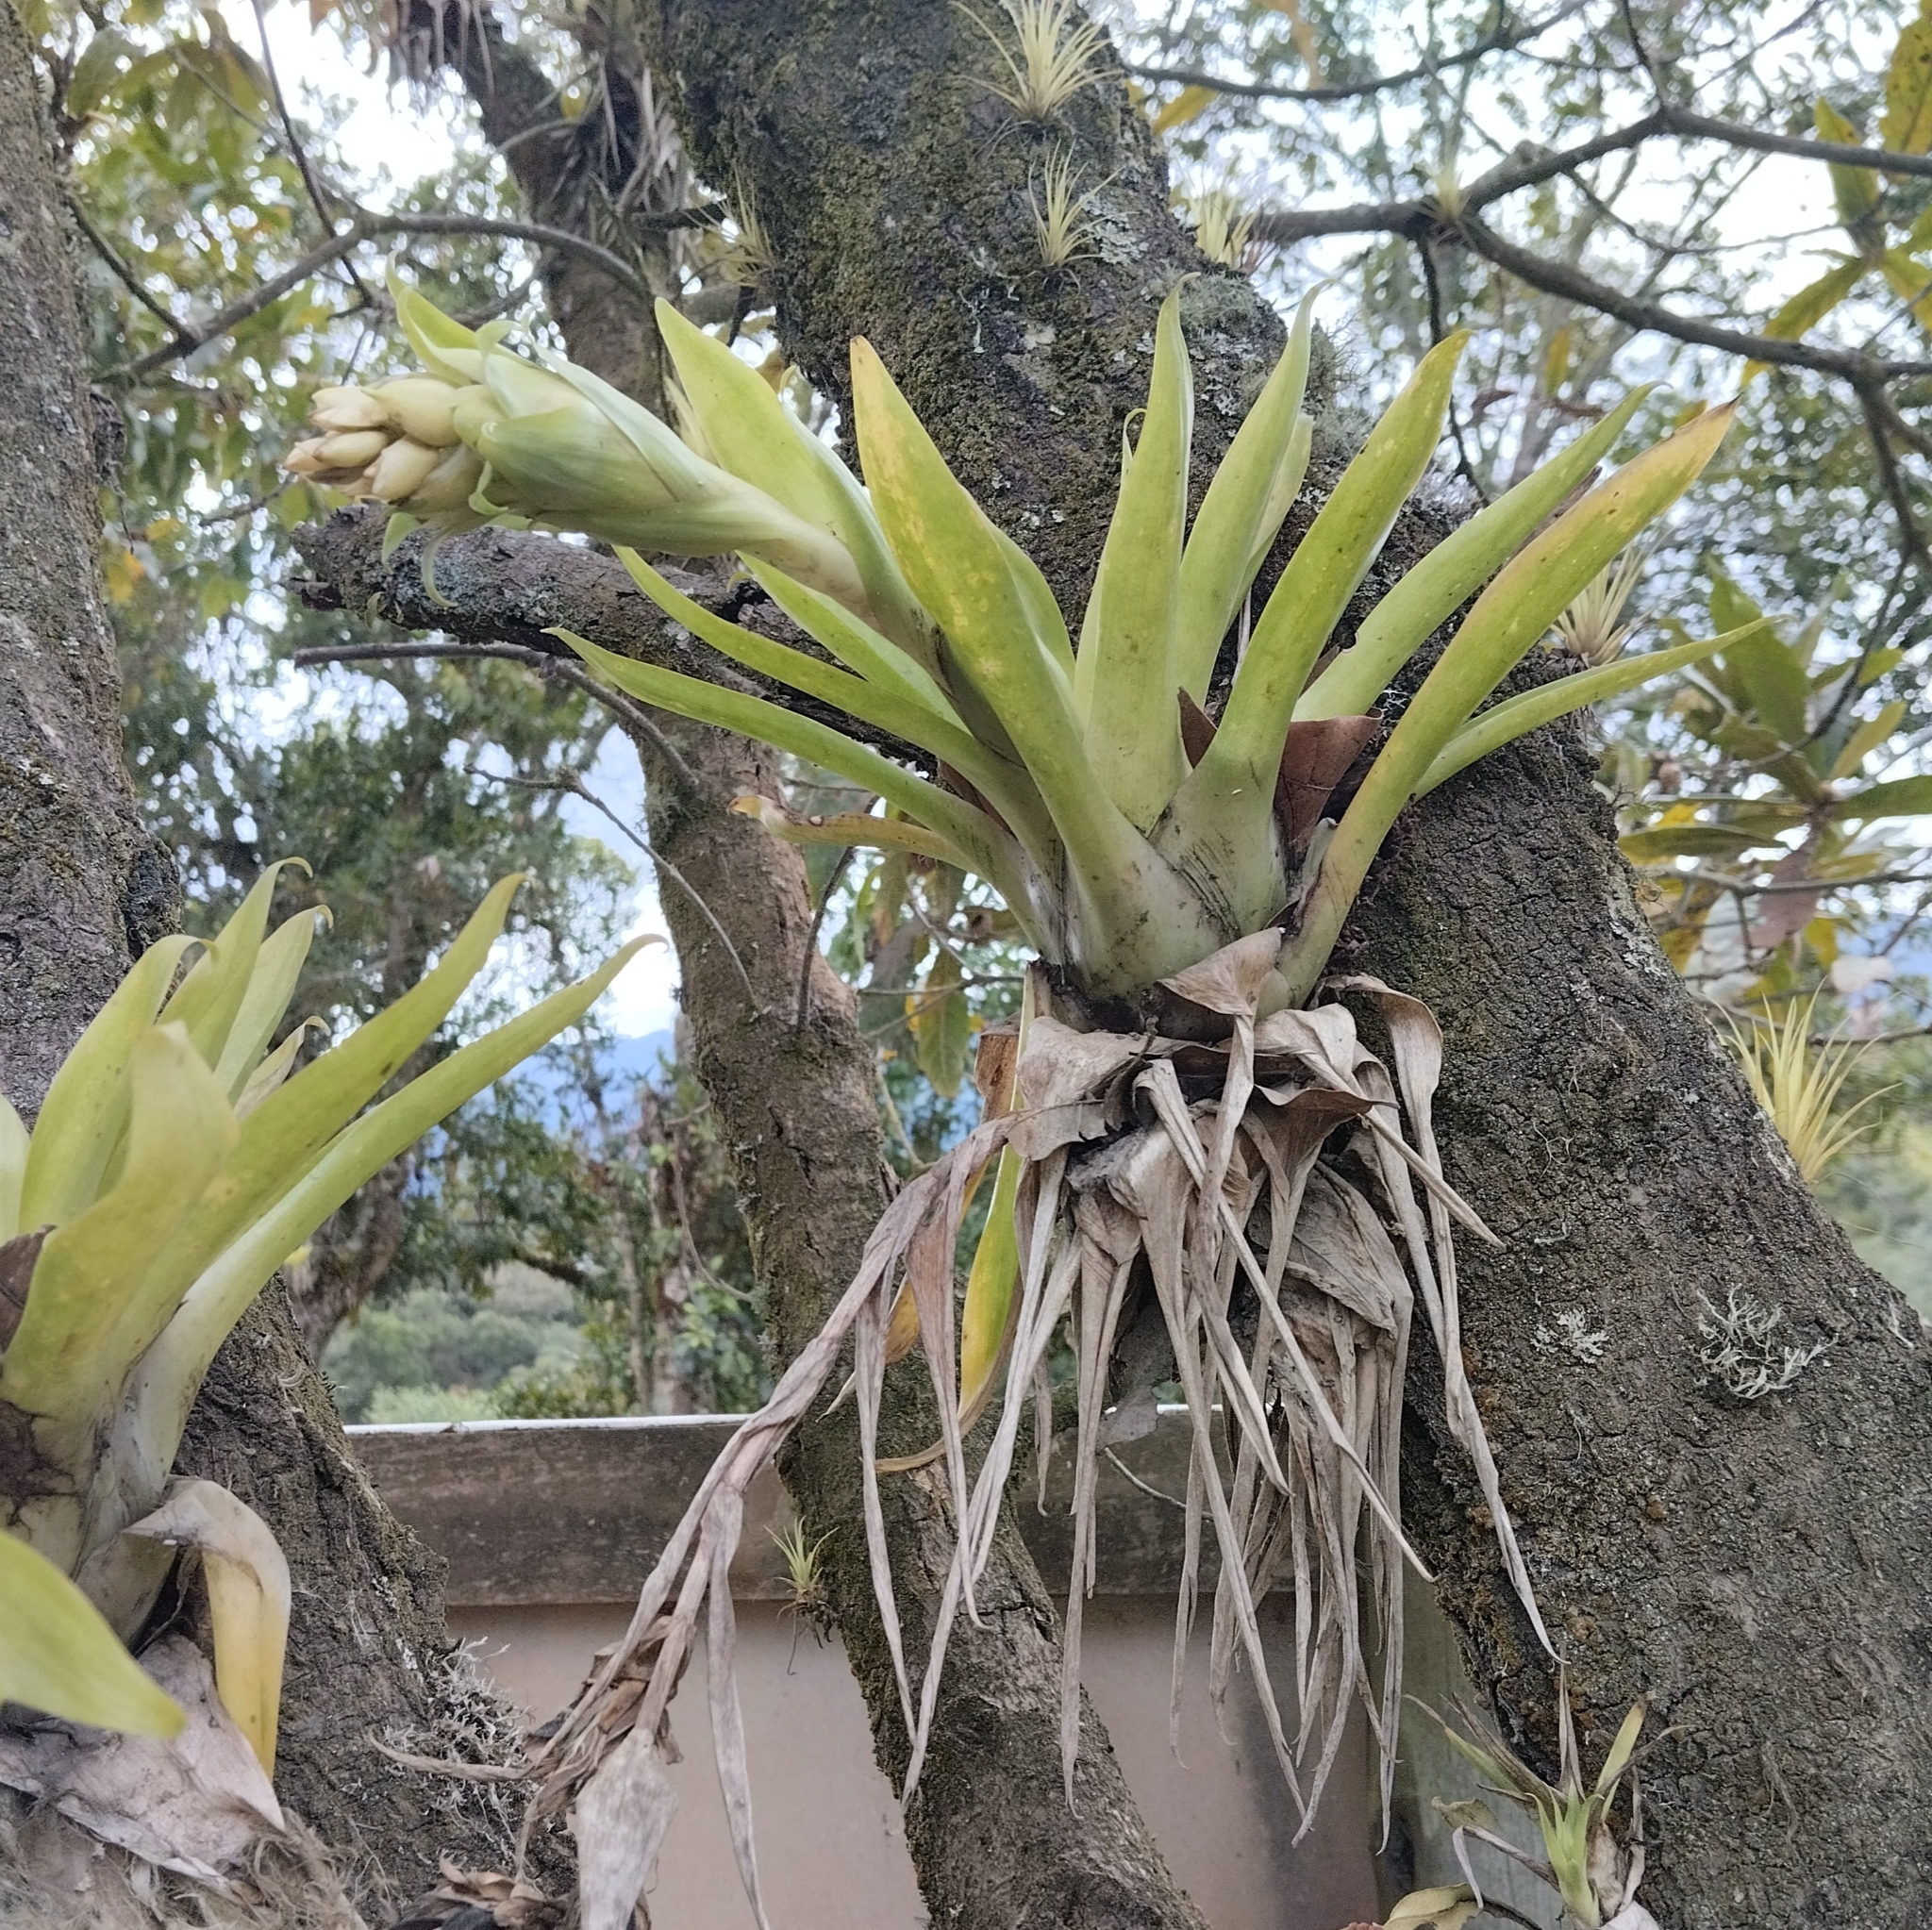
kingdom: Plantae
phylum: Tracheophyta
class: Liliopsida
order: Poales
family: Bromeliaceae
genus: Tillandsia
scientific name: Tillandsia biflora
